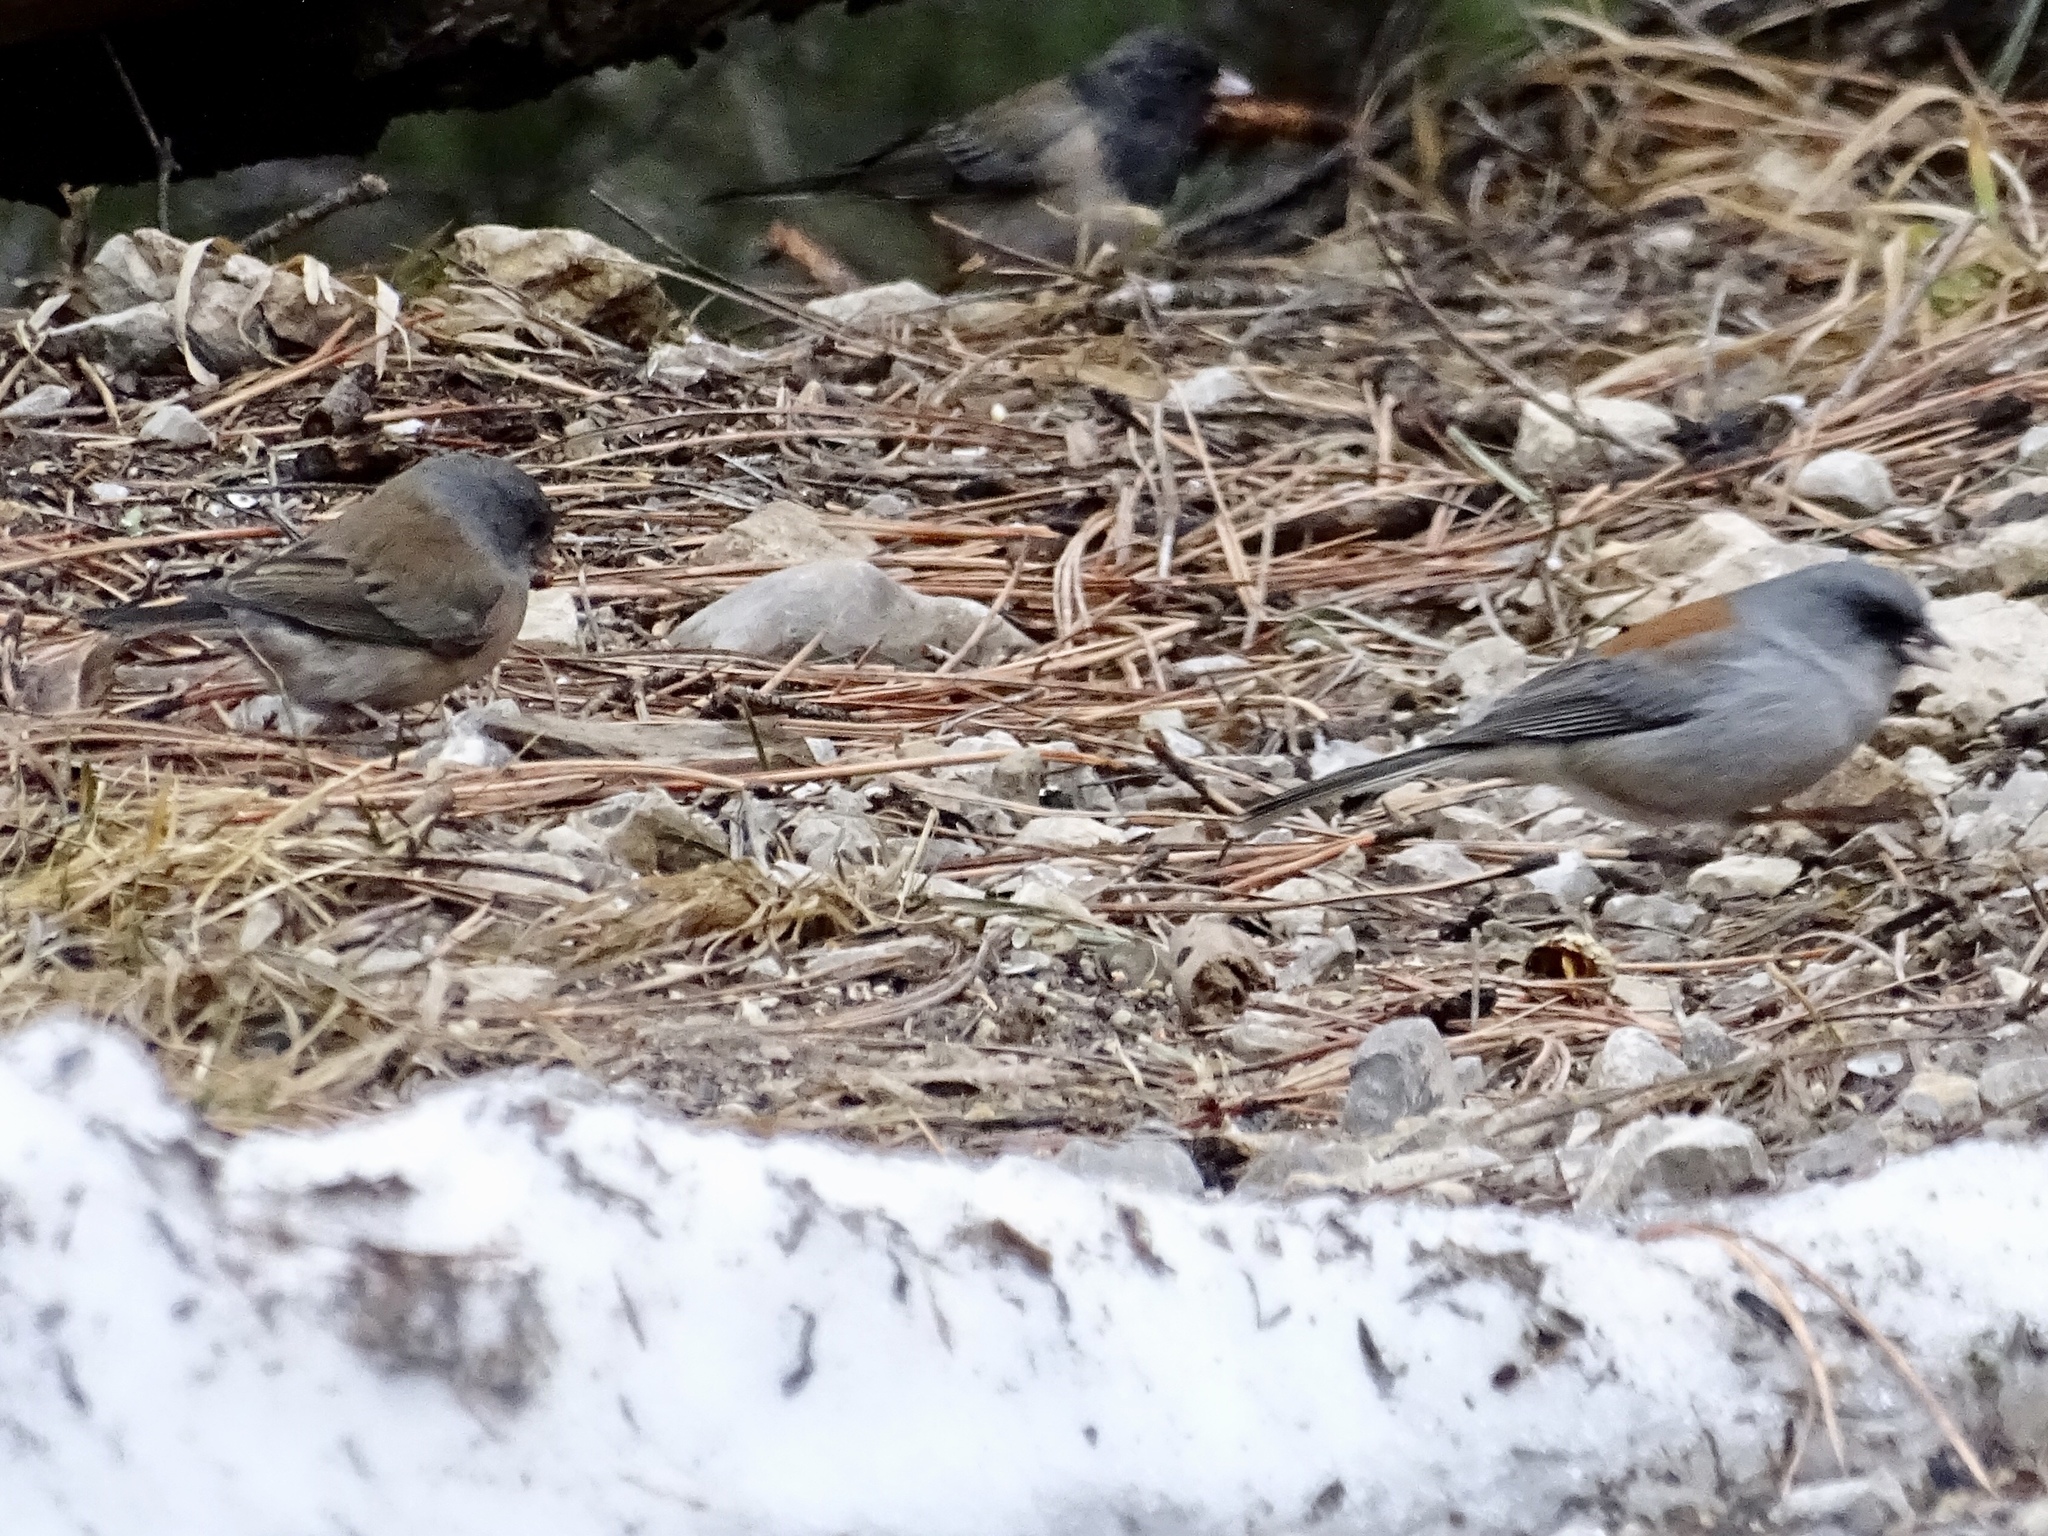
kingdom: Animalia
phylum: Chordata
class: Aves
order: Passeriformes
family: Passerellidae
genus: Junco
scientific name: Junco hyemalis
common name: Dark-eyed junco
